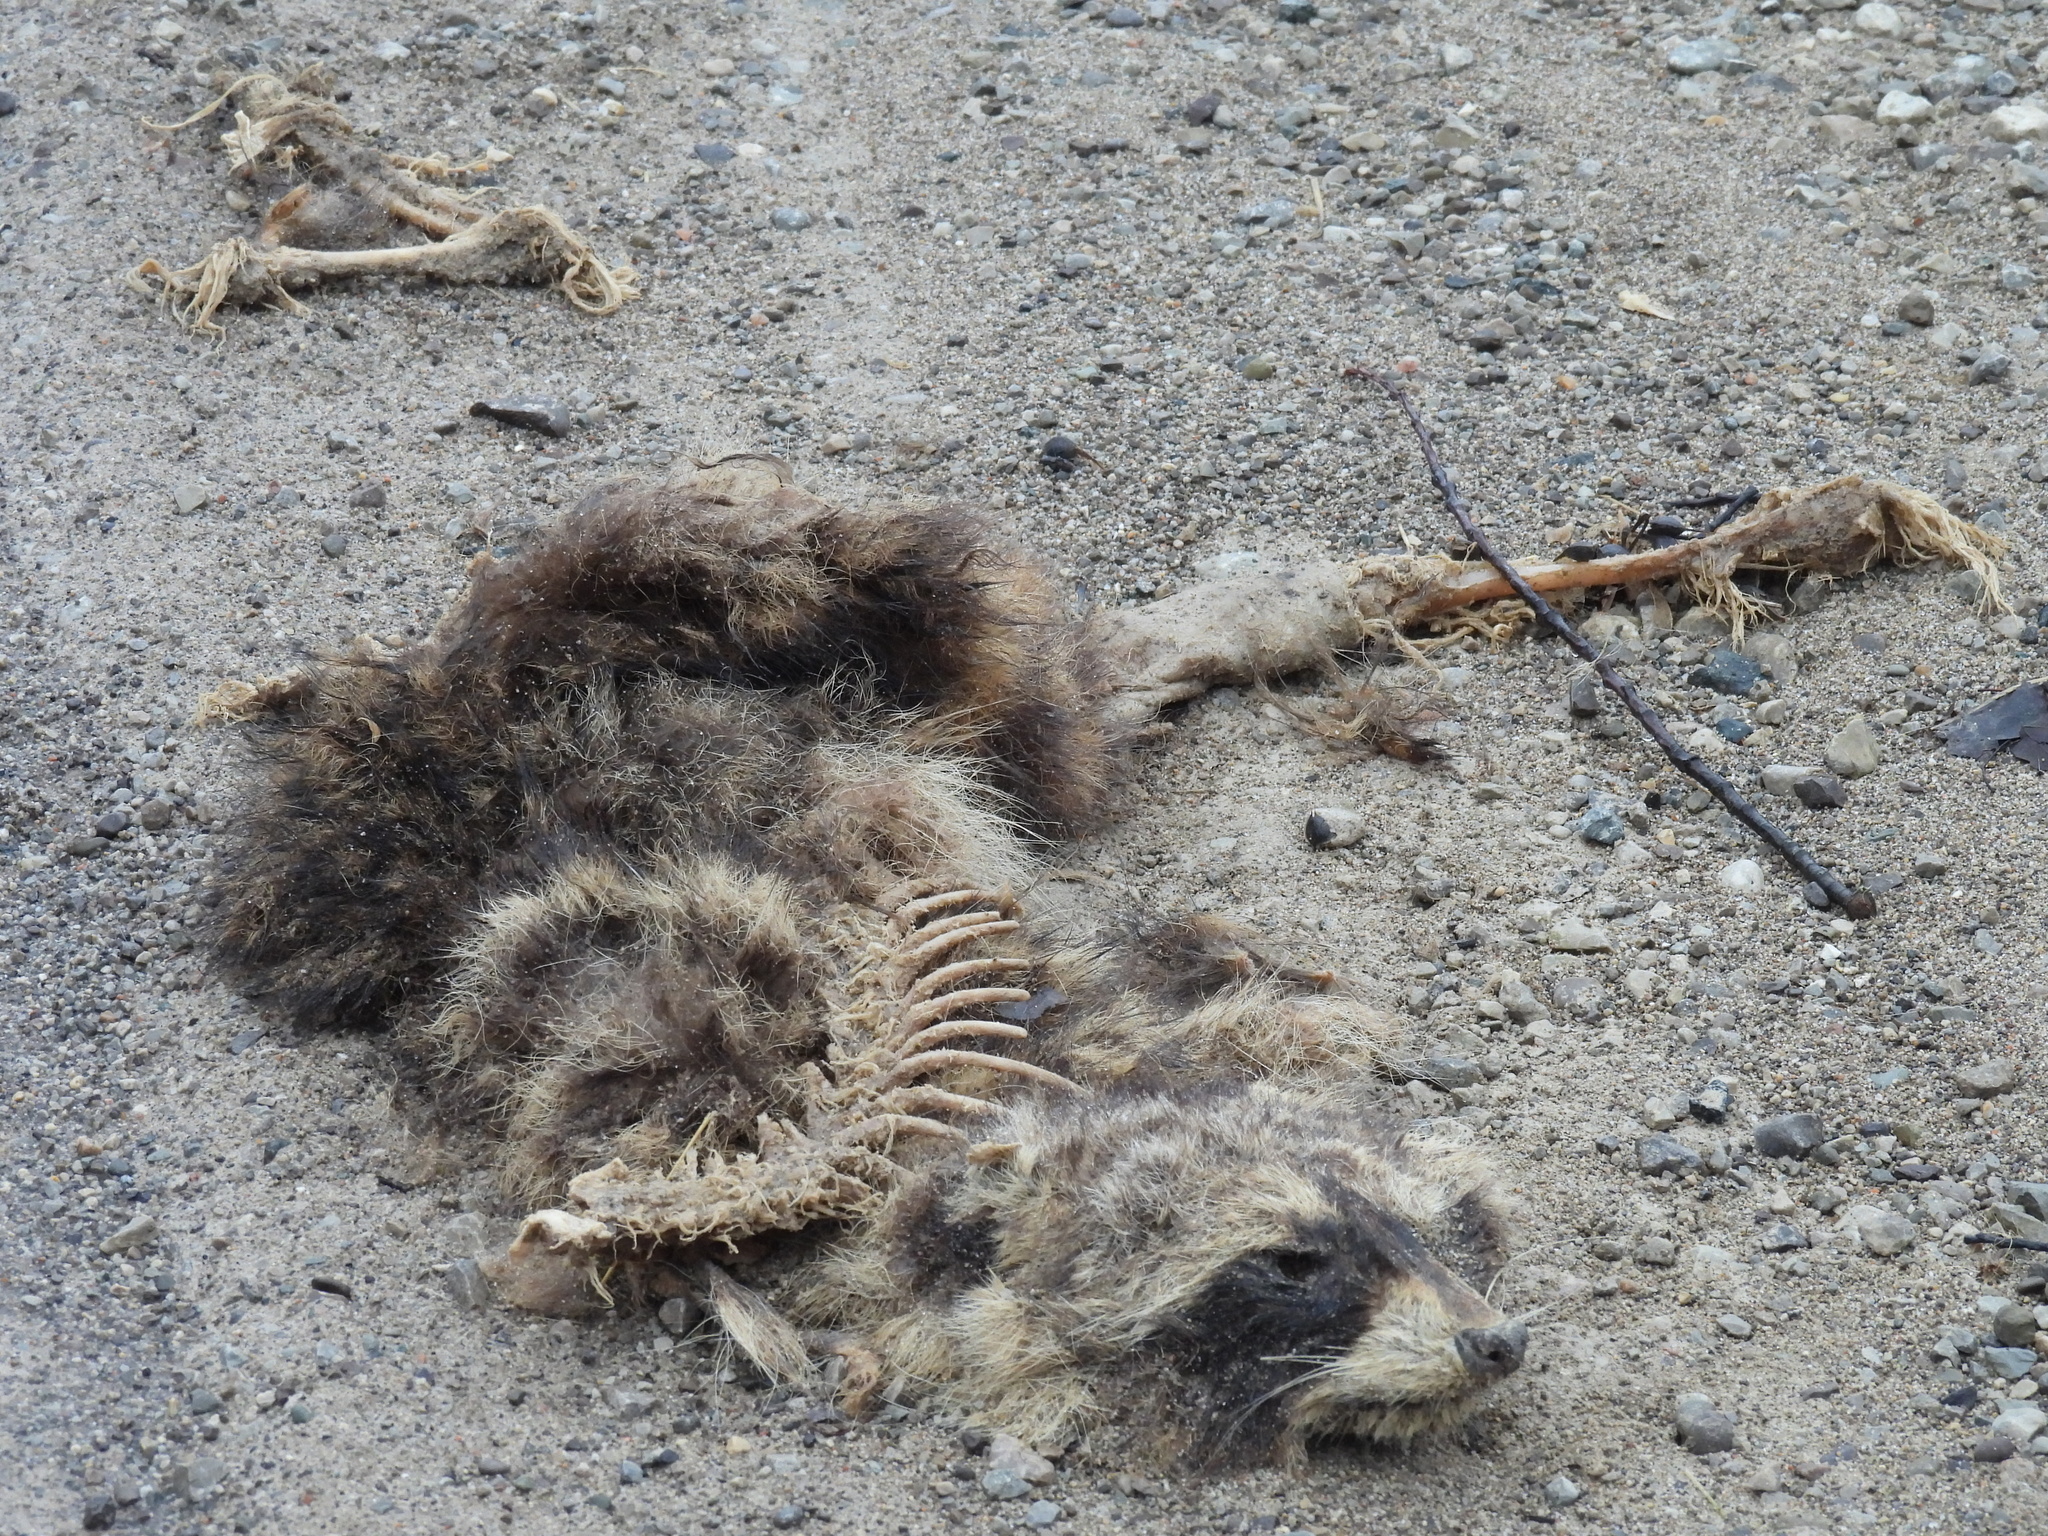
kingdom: Animalia
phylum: Chordata
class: Mammalia
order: Carnivora
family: Procyonidae
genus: Procyon
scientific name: Procyon lotor
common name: Raccoon
